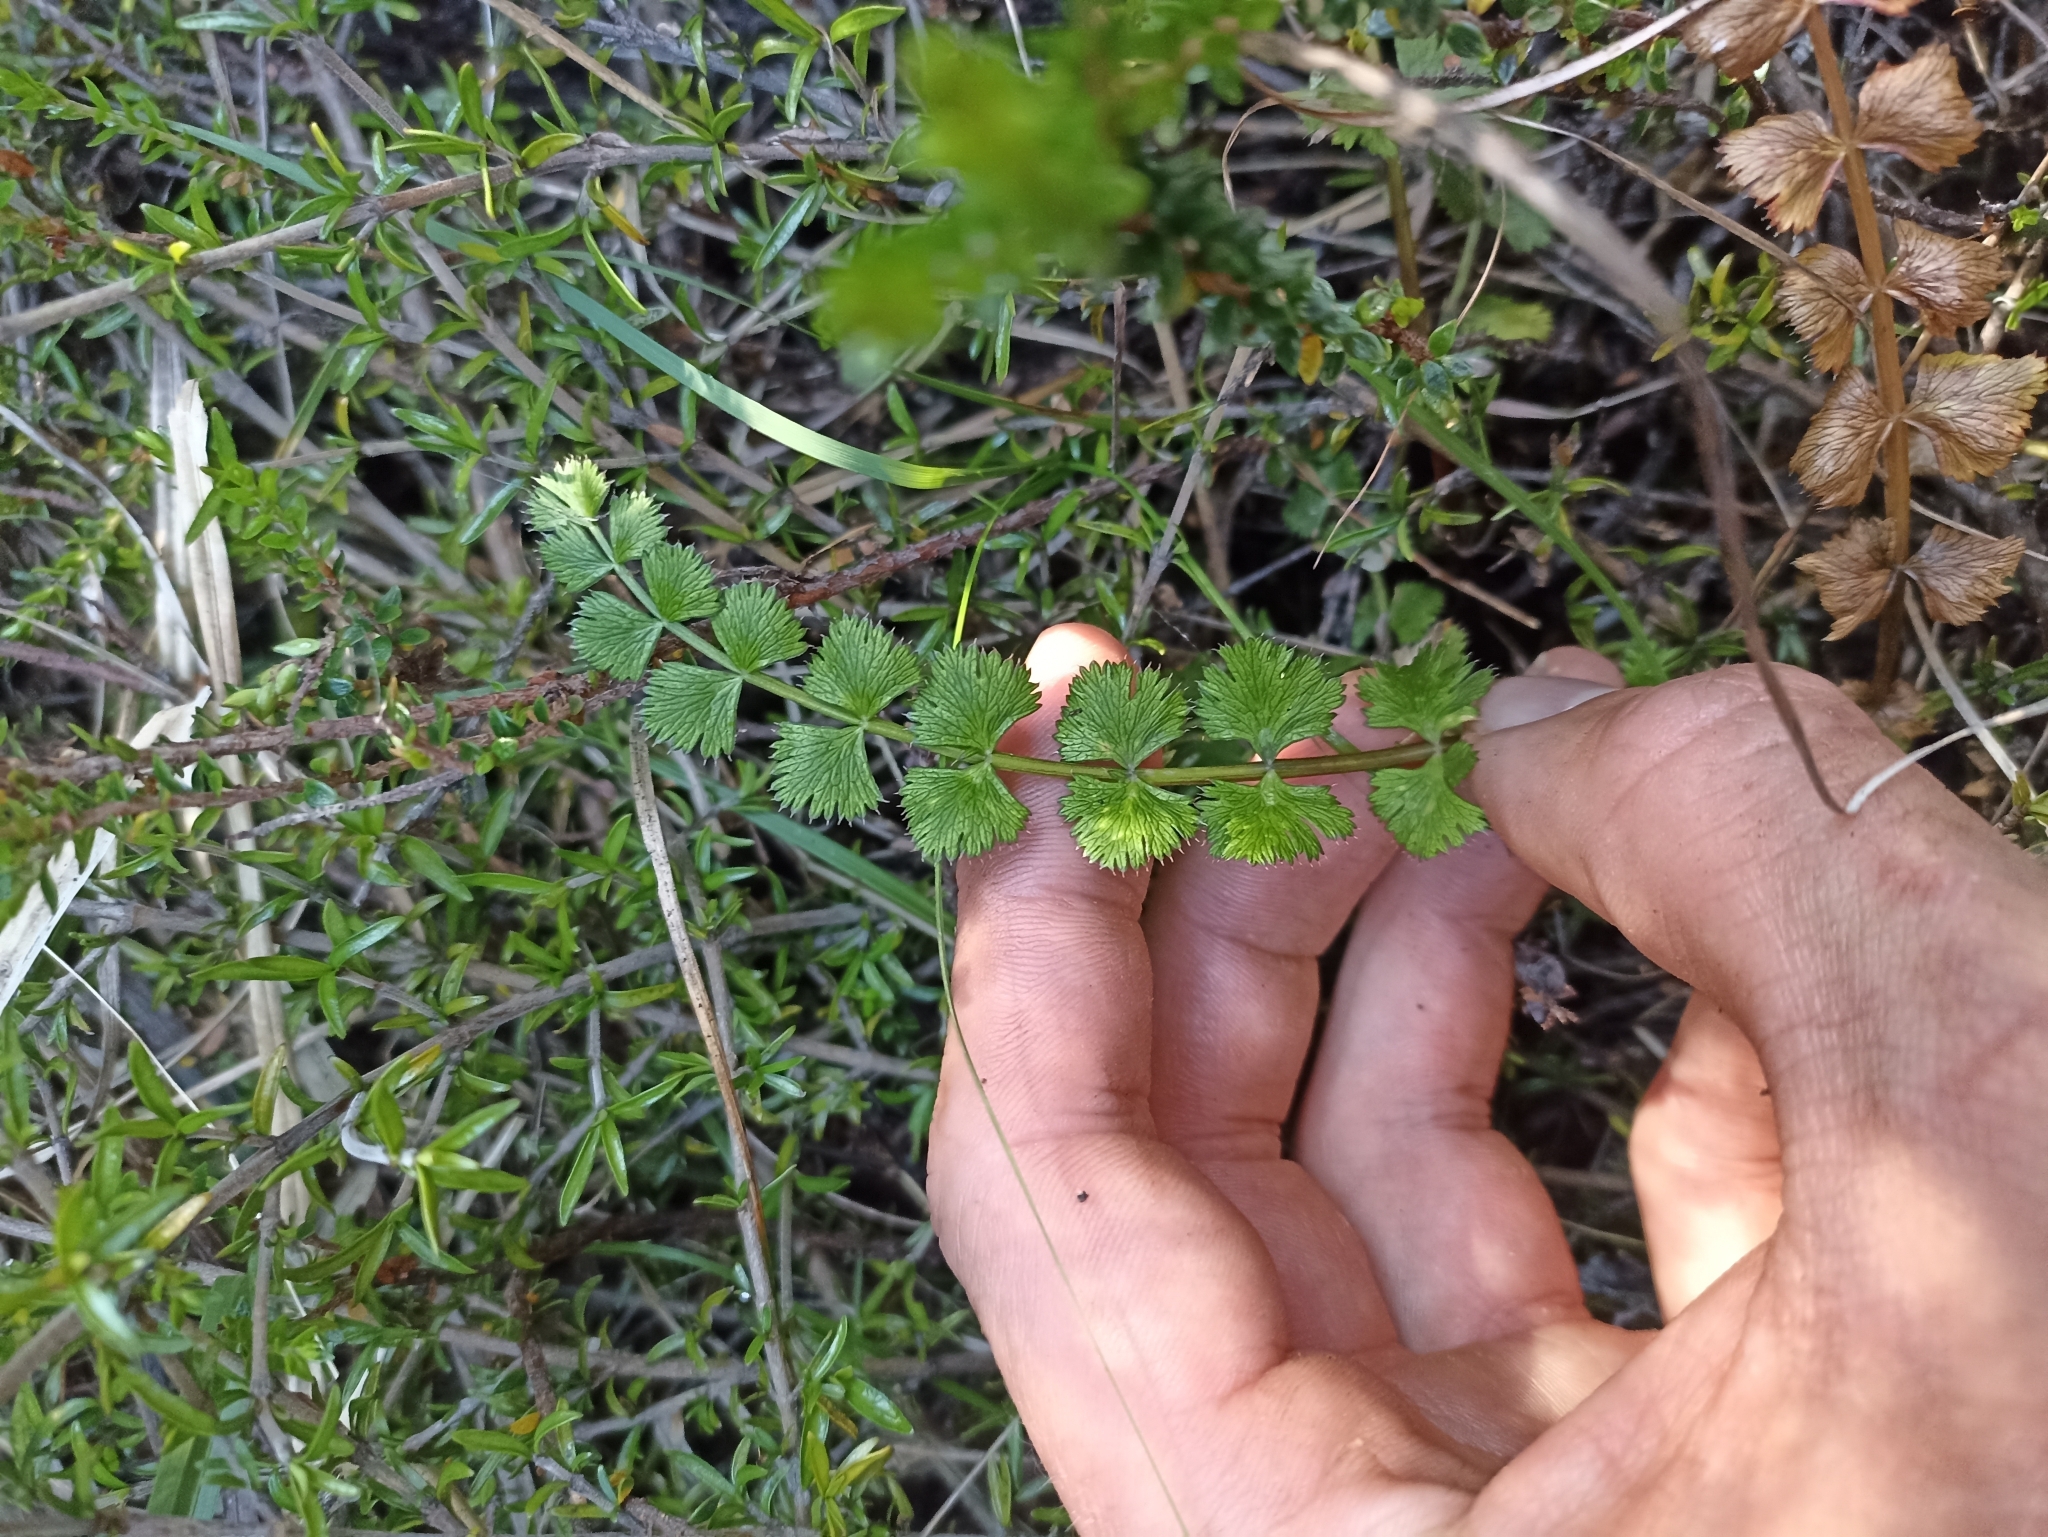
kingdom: Plantae
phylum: Tracheophyta
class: Magnoliopsida
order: Apiales
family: Apiaceae
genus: Anisotome
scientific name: Anisotome aromatica
